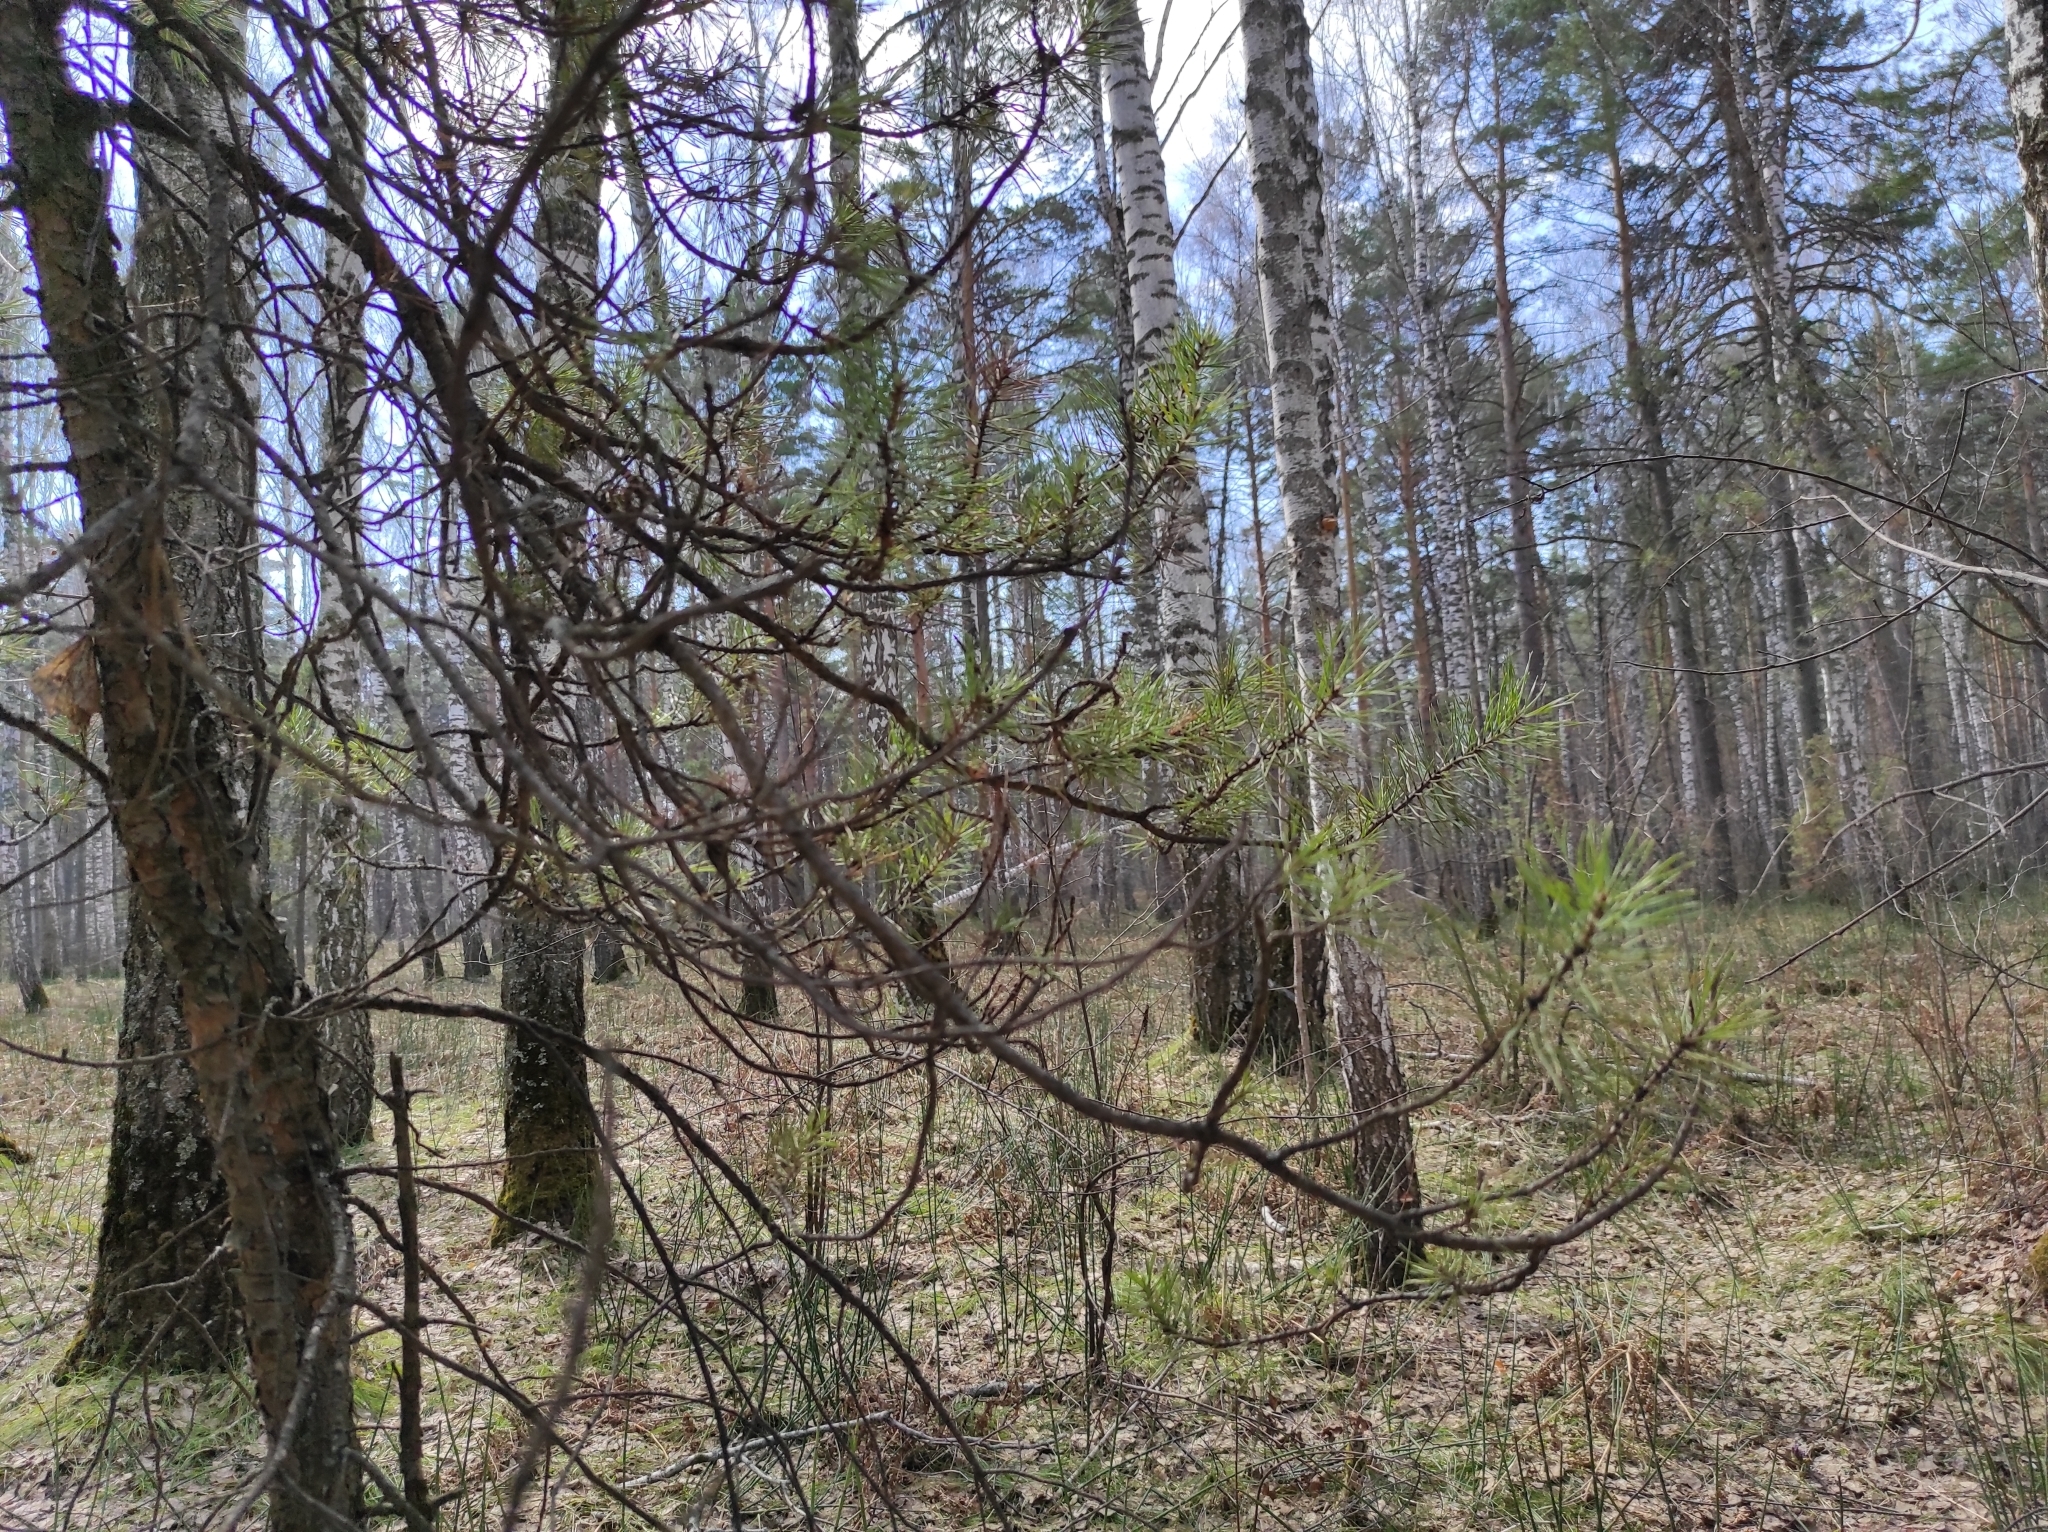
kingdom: Plantae
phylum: Tracheophyta
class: Pinopsida
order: Pinales
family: Pinaceae
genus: Pinus
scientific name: Pinus sylvestris
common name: Scots pine
